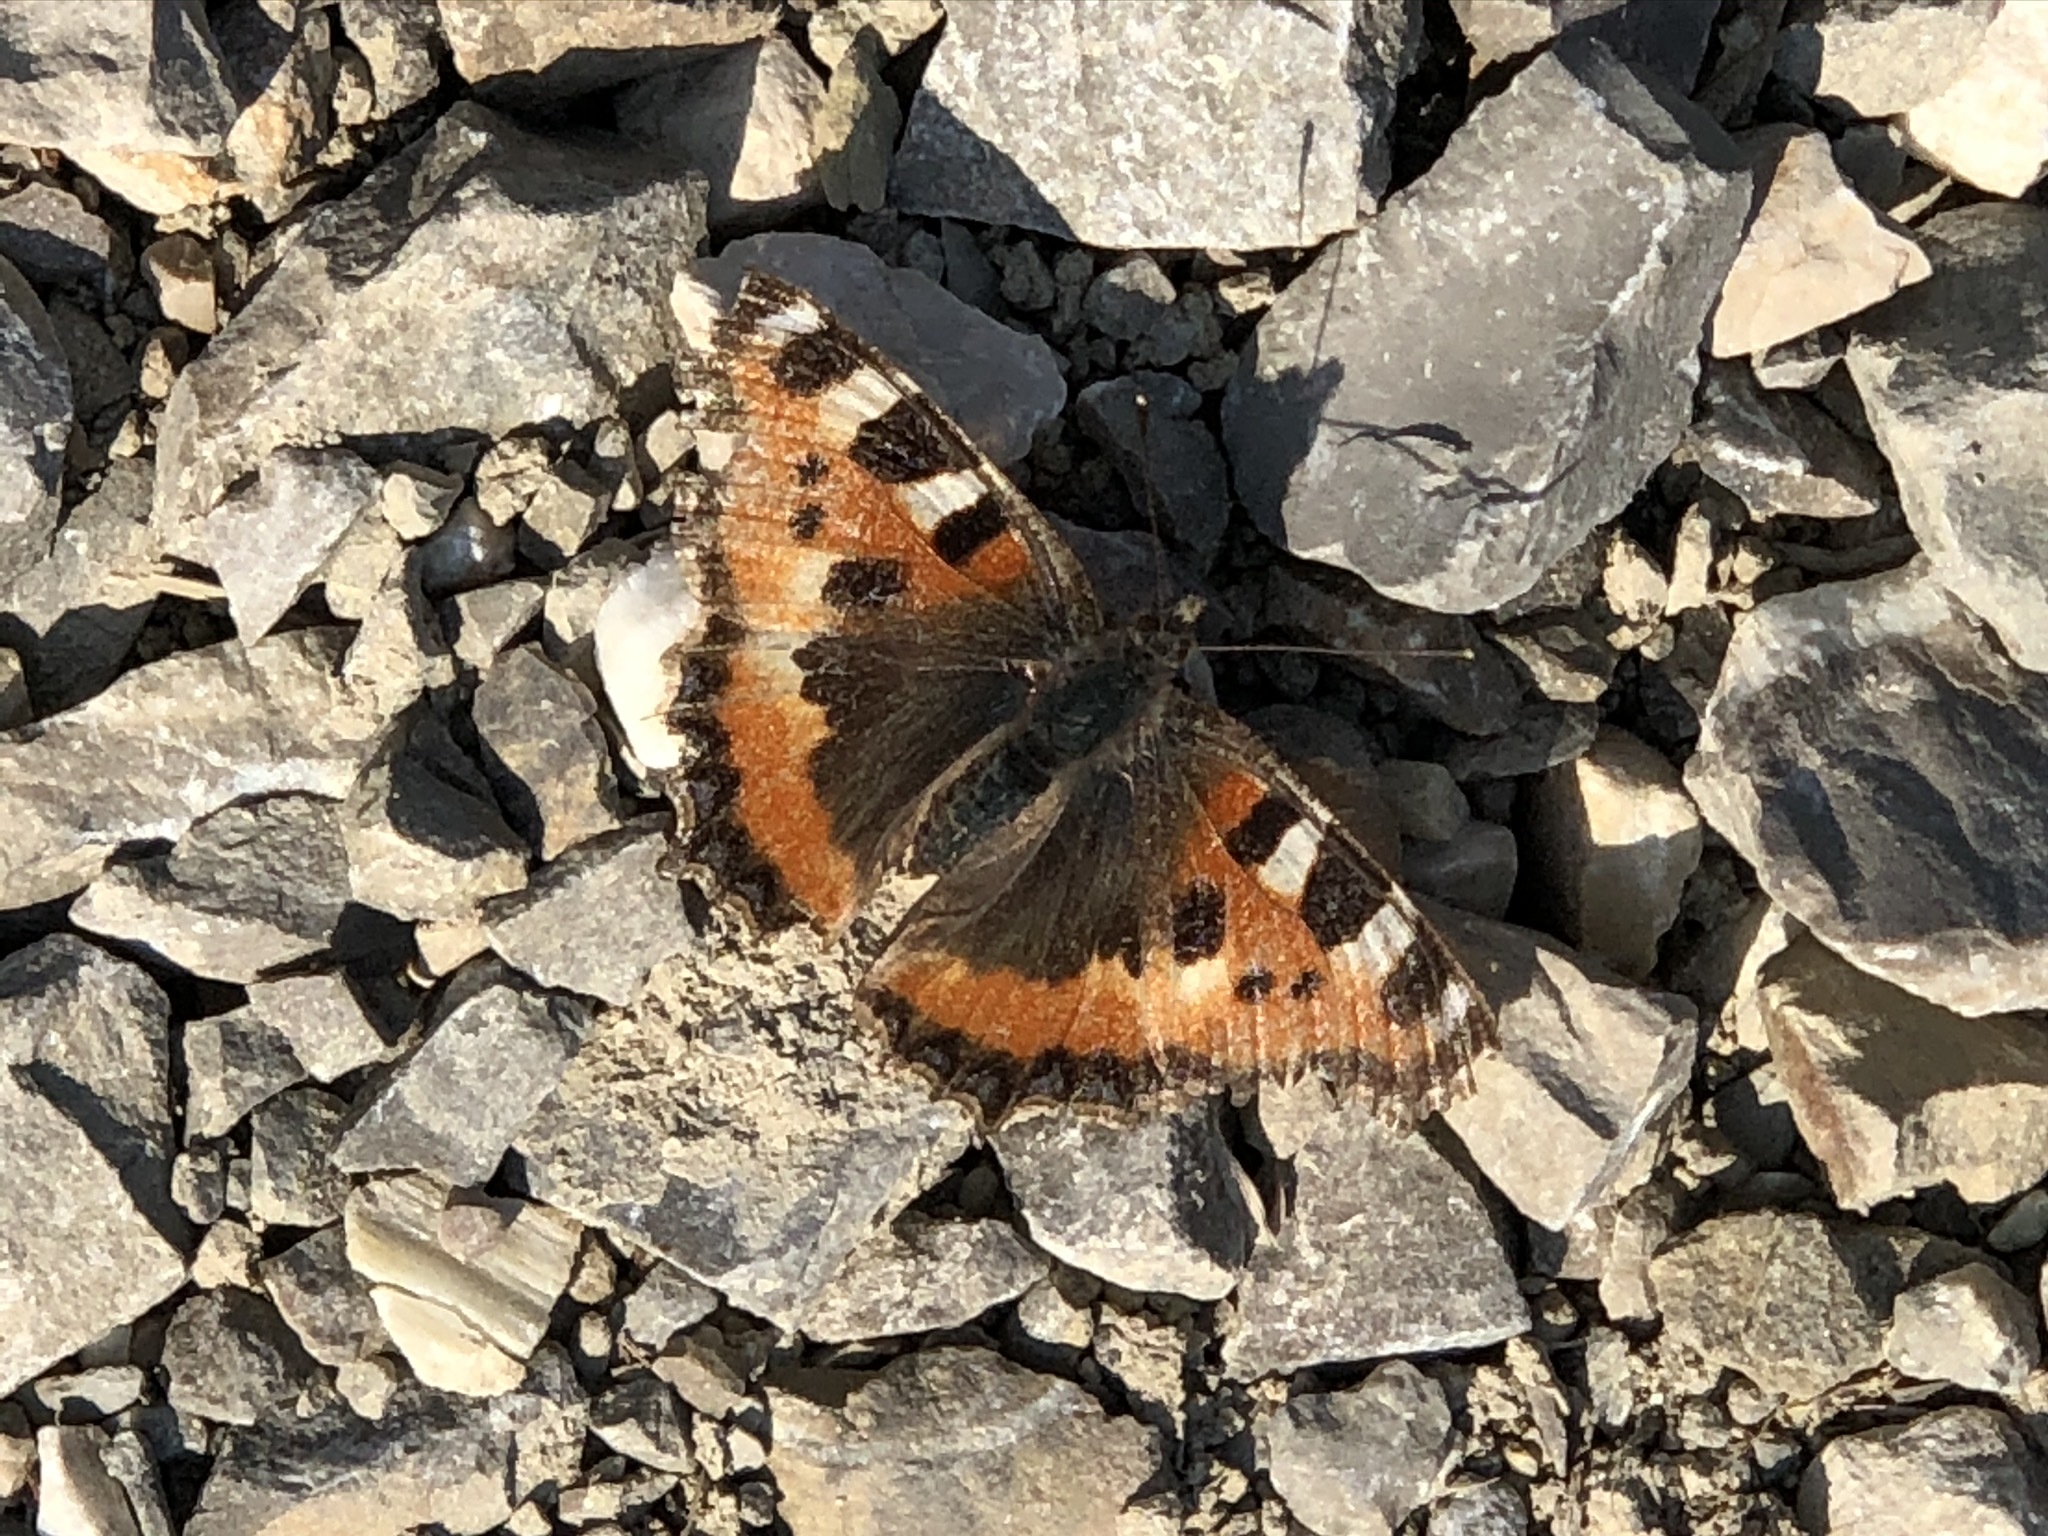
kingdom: Animalia
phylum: Arthropoda
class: Insecta
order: Lepidoptera
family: Nymphalidae
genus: Aglais
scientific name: Aglais urticae
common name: Small tortoiseshell
